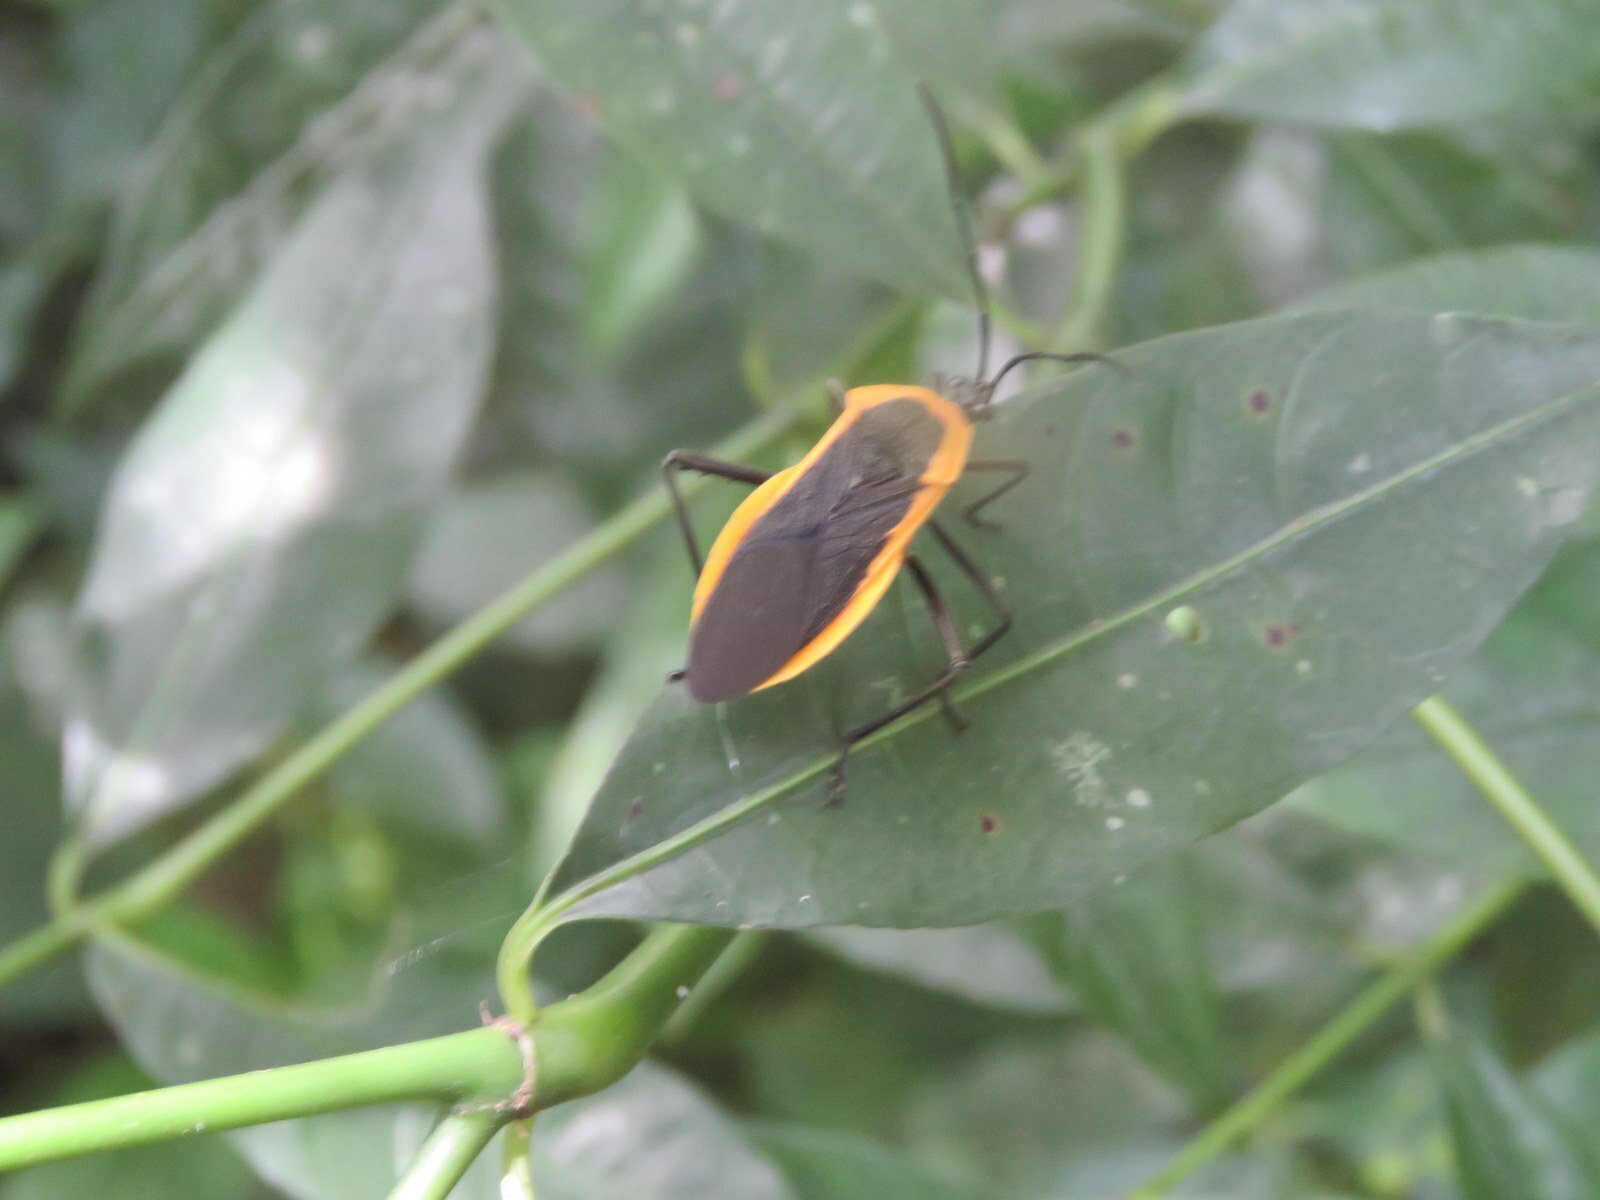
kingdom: Animalia
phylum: Arthropoda
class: Insecta
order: Hemiptera
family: Coreidae
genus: Laminiceps
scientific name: Laminiceps lutescens
